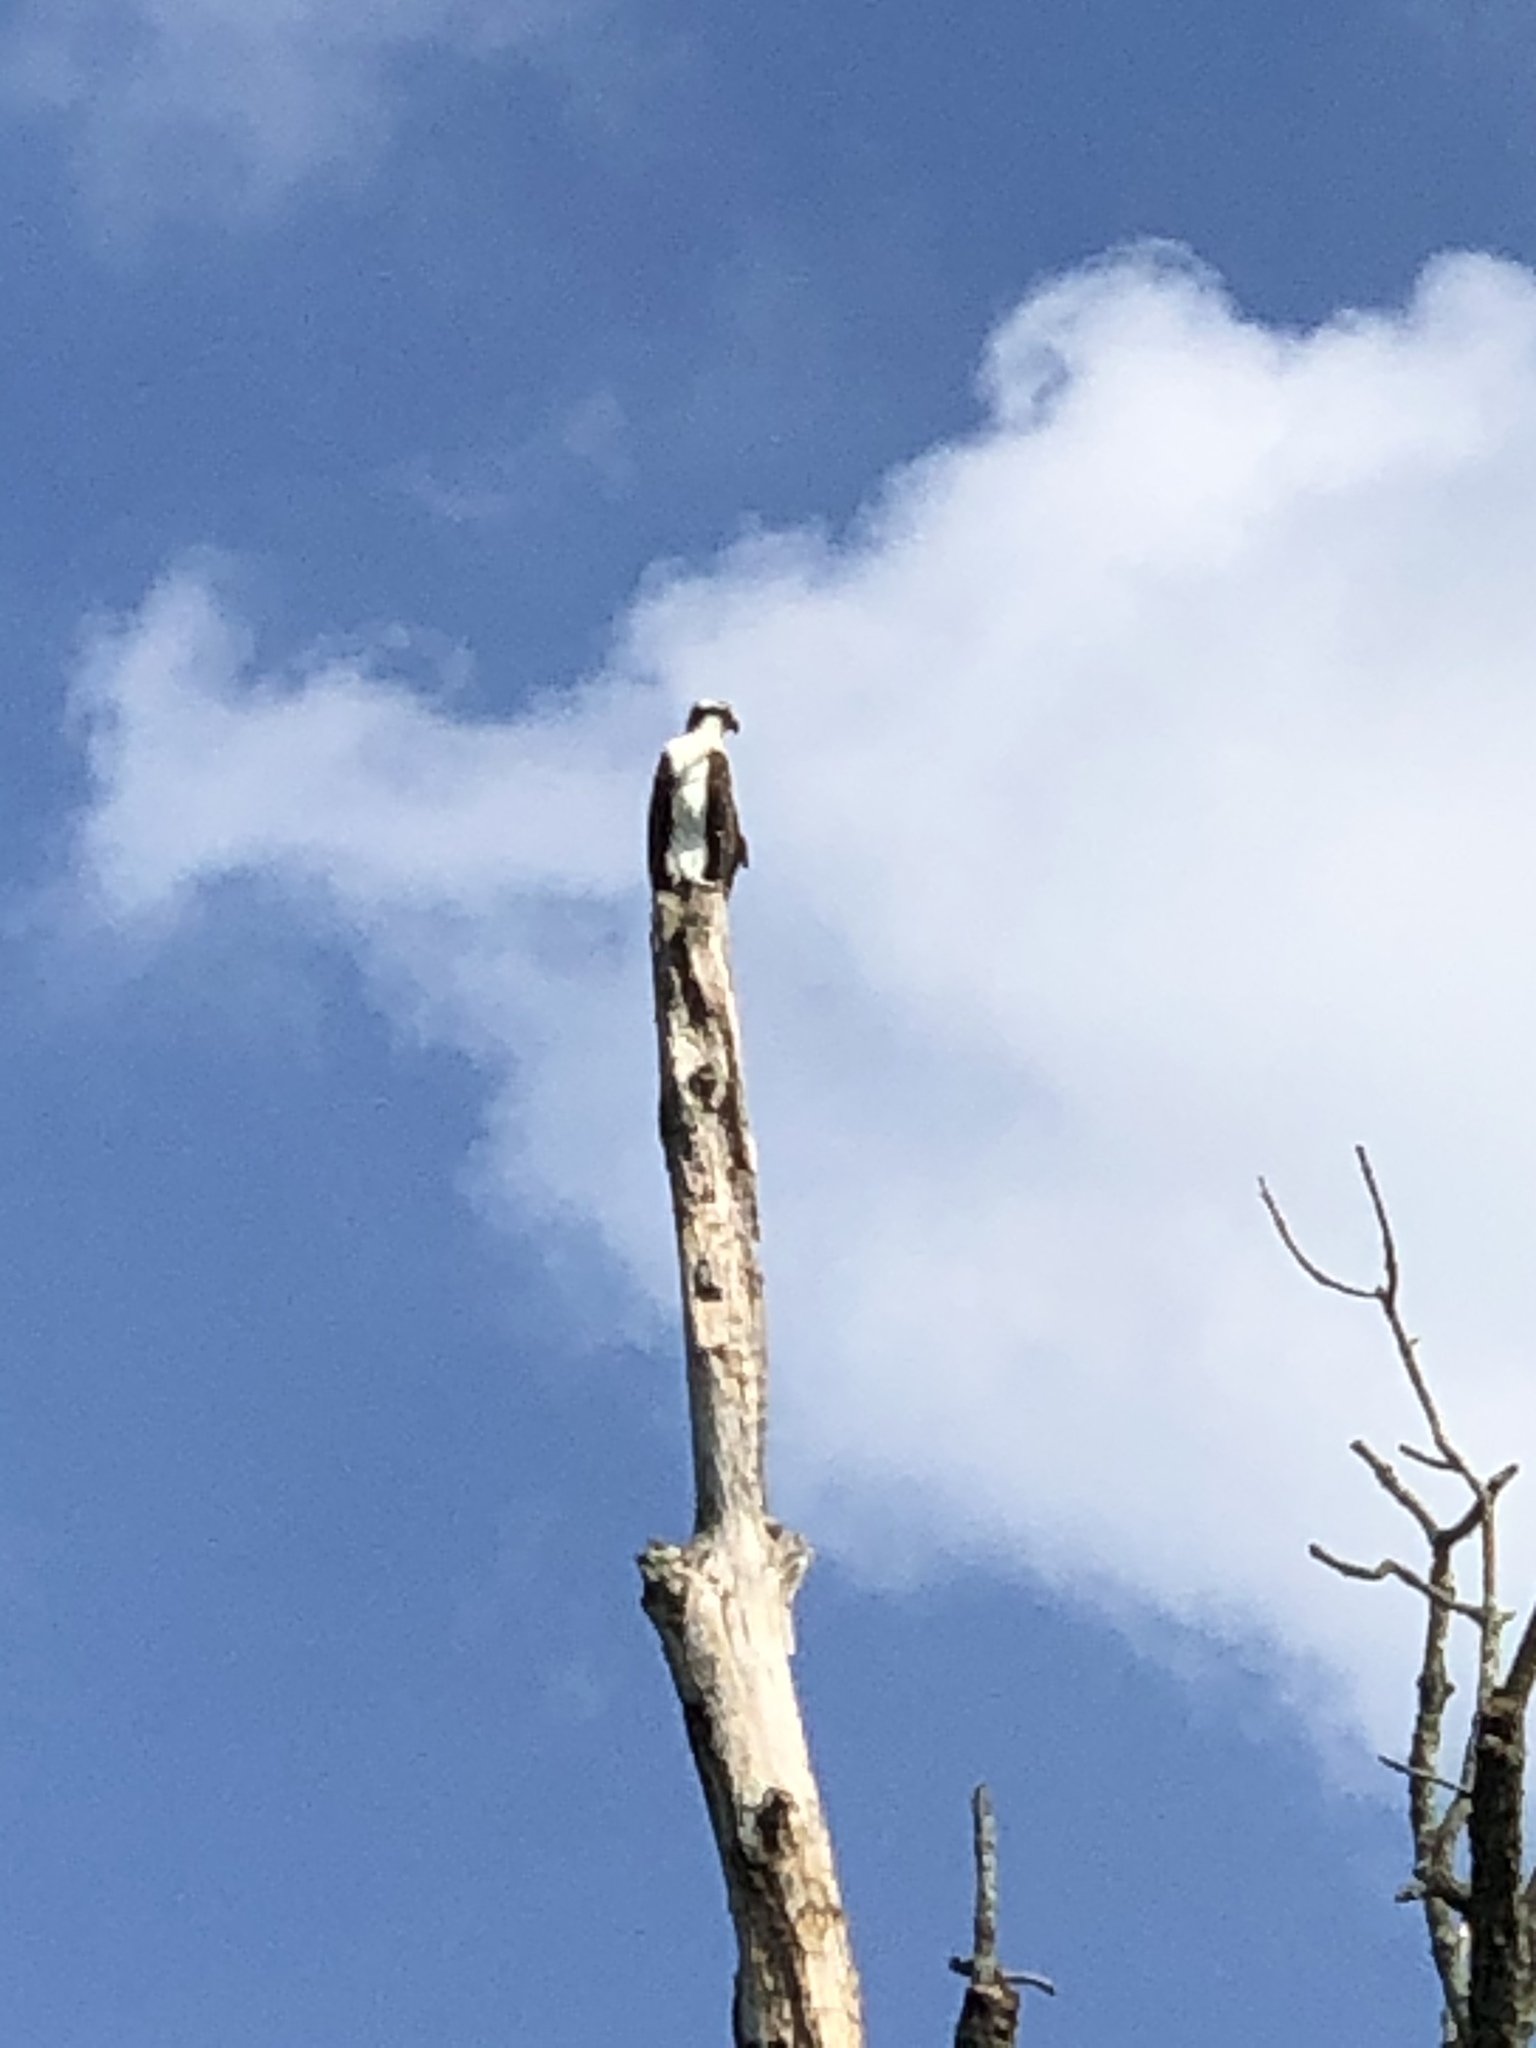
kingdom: Animalia
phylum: Chordata
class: Aves
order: Accipitriformes
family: Pandionidae
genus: Pandion
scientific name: Pandion haliaetus
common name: Osprey
